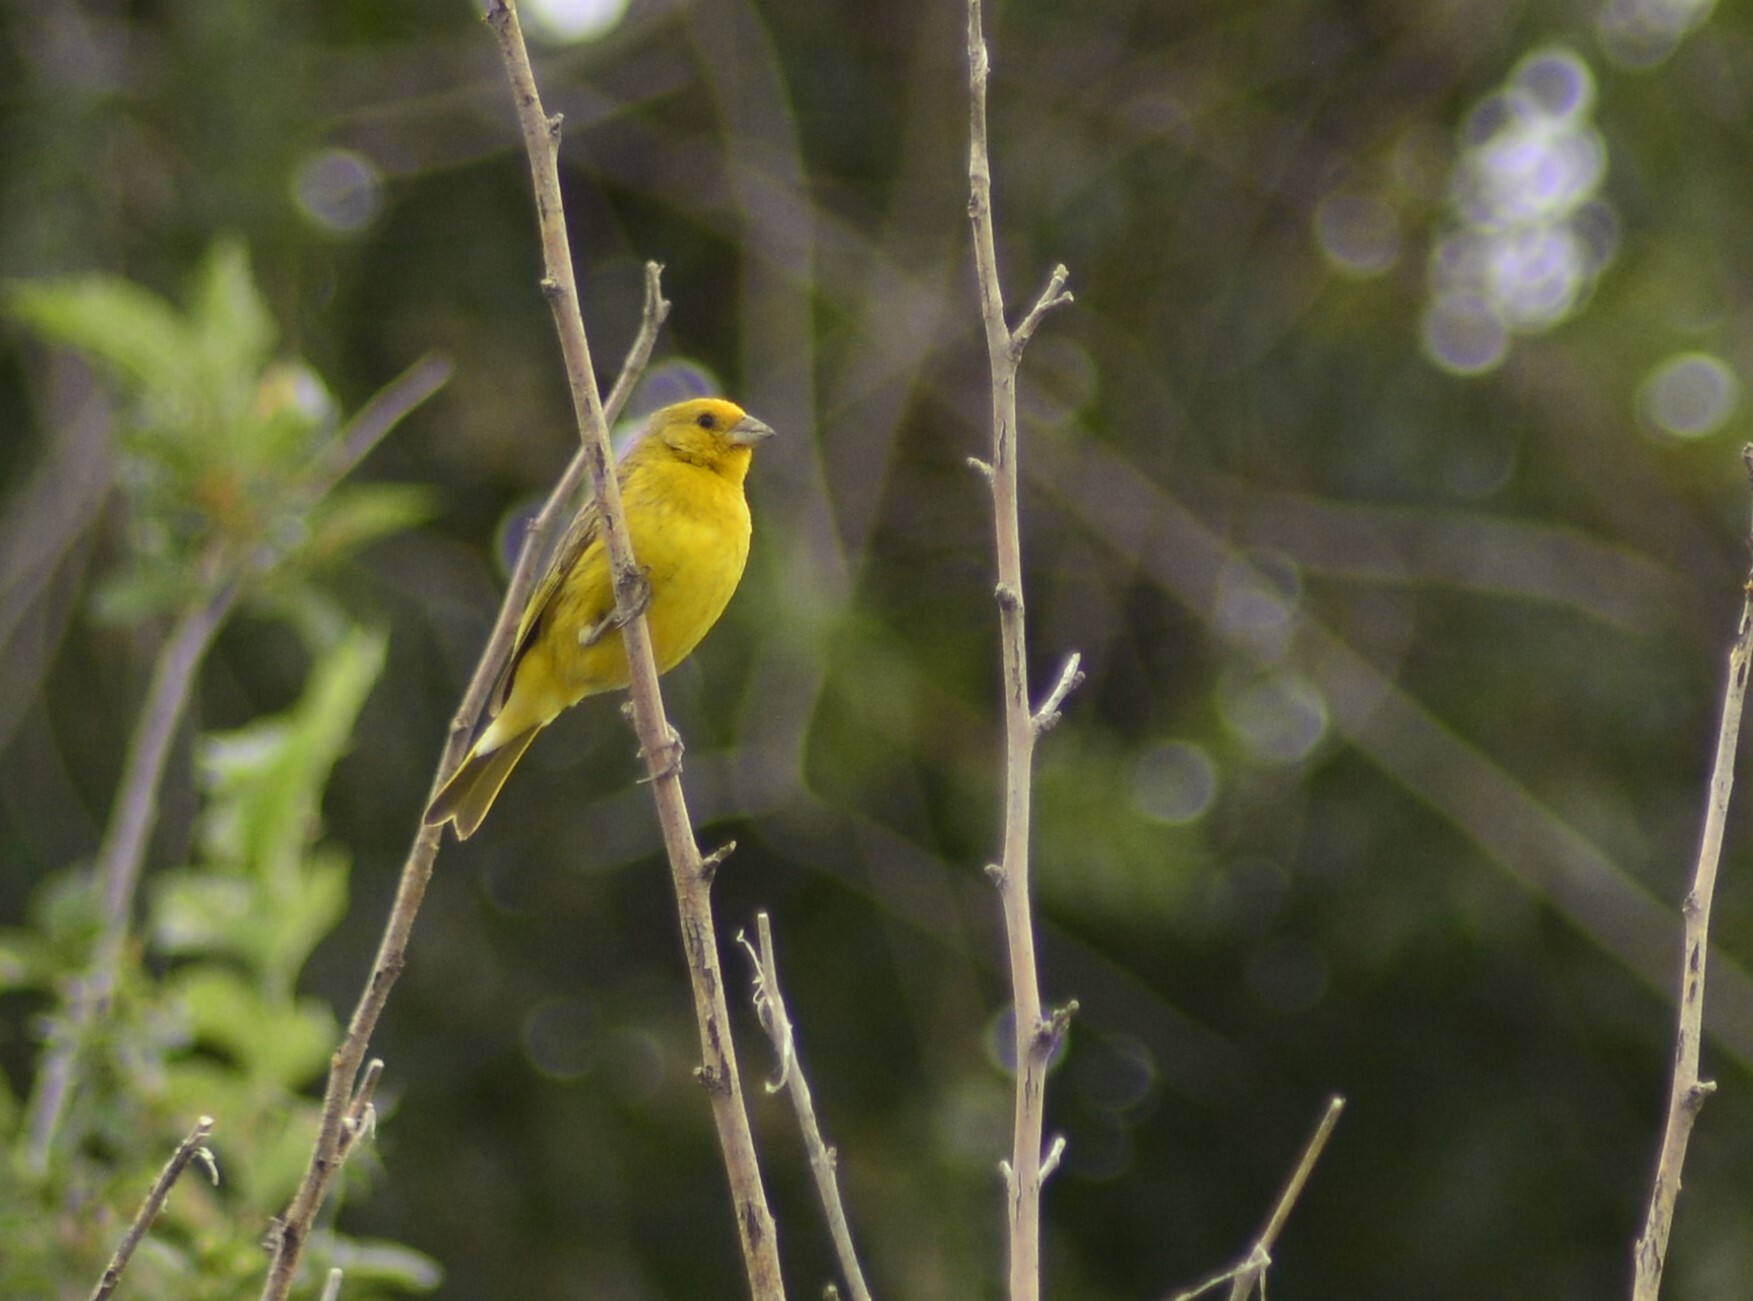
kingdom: Animalia
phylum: Chordata
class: Aves
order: Passeriformes
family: Thraupidae
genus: Sicalis
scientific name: Sicalis flaveola
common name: Saffron finch
